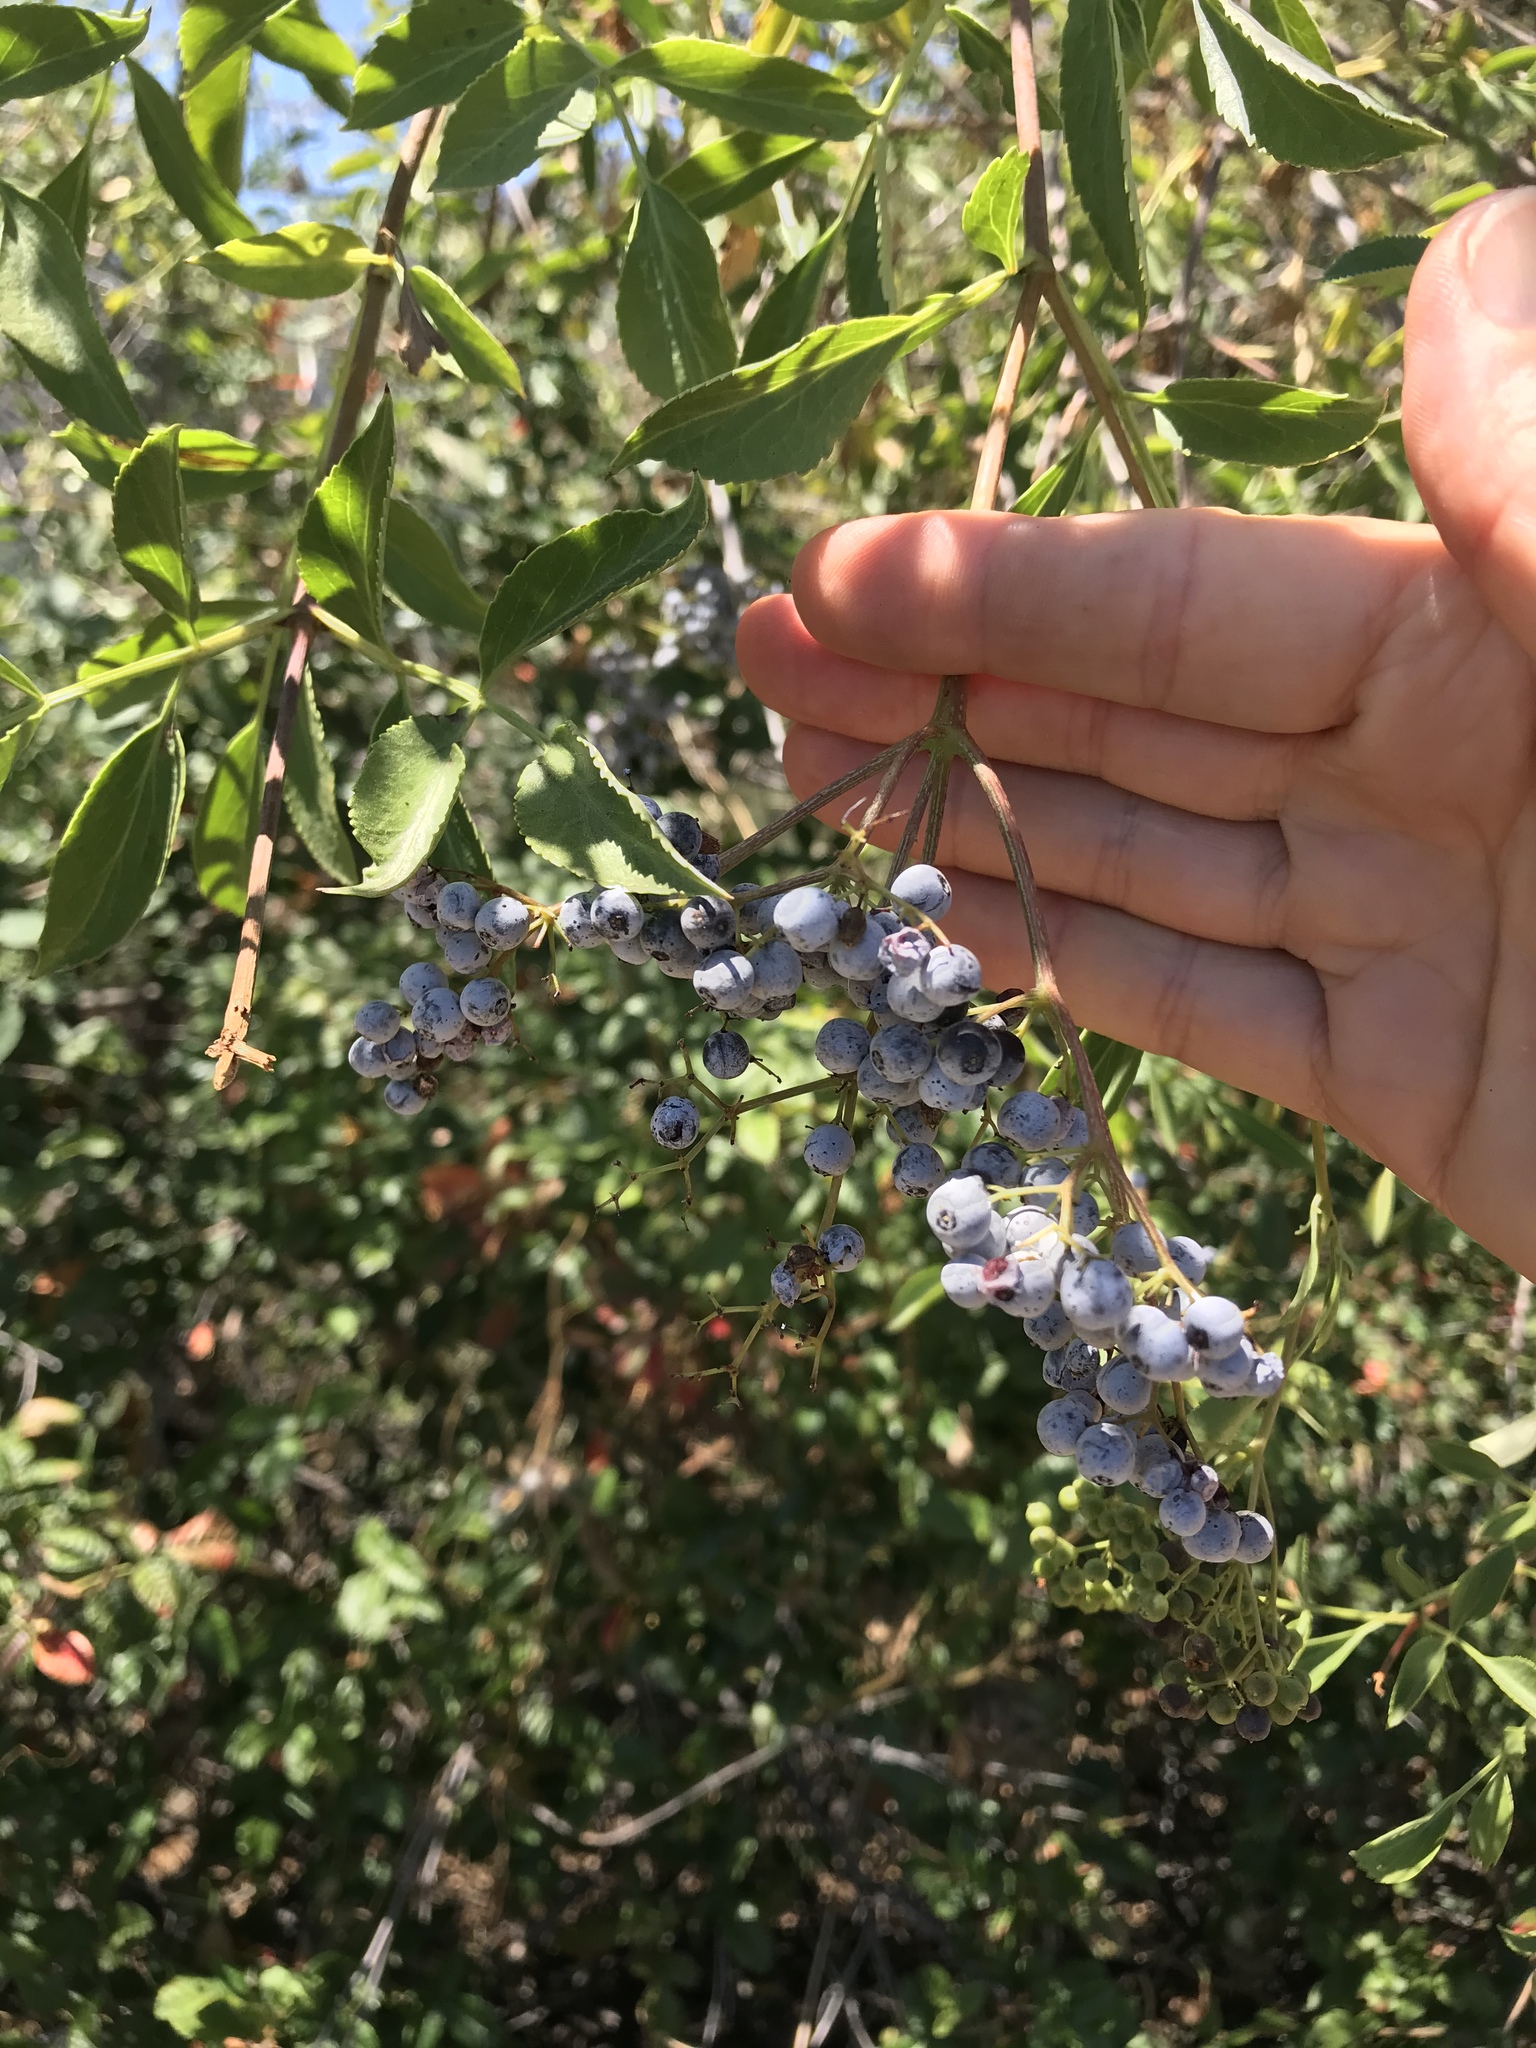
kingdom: Plantae
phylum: Tracheophyta
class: Magnoliopsida
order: Dipsacales
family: Viburnaceae
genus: Sambucus
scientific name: Sambucus cerulea
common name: Blue elder
